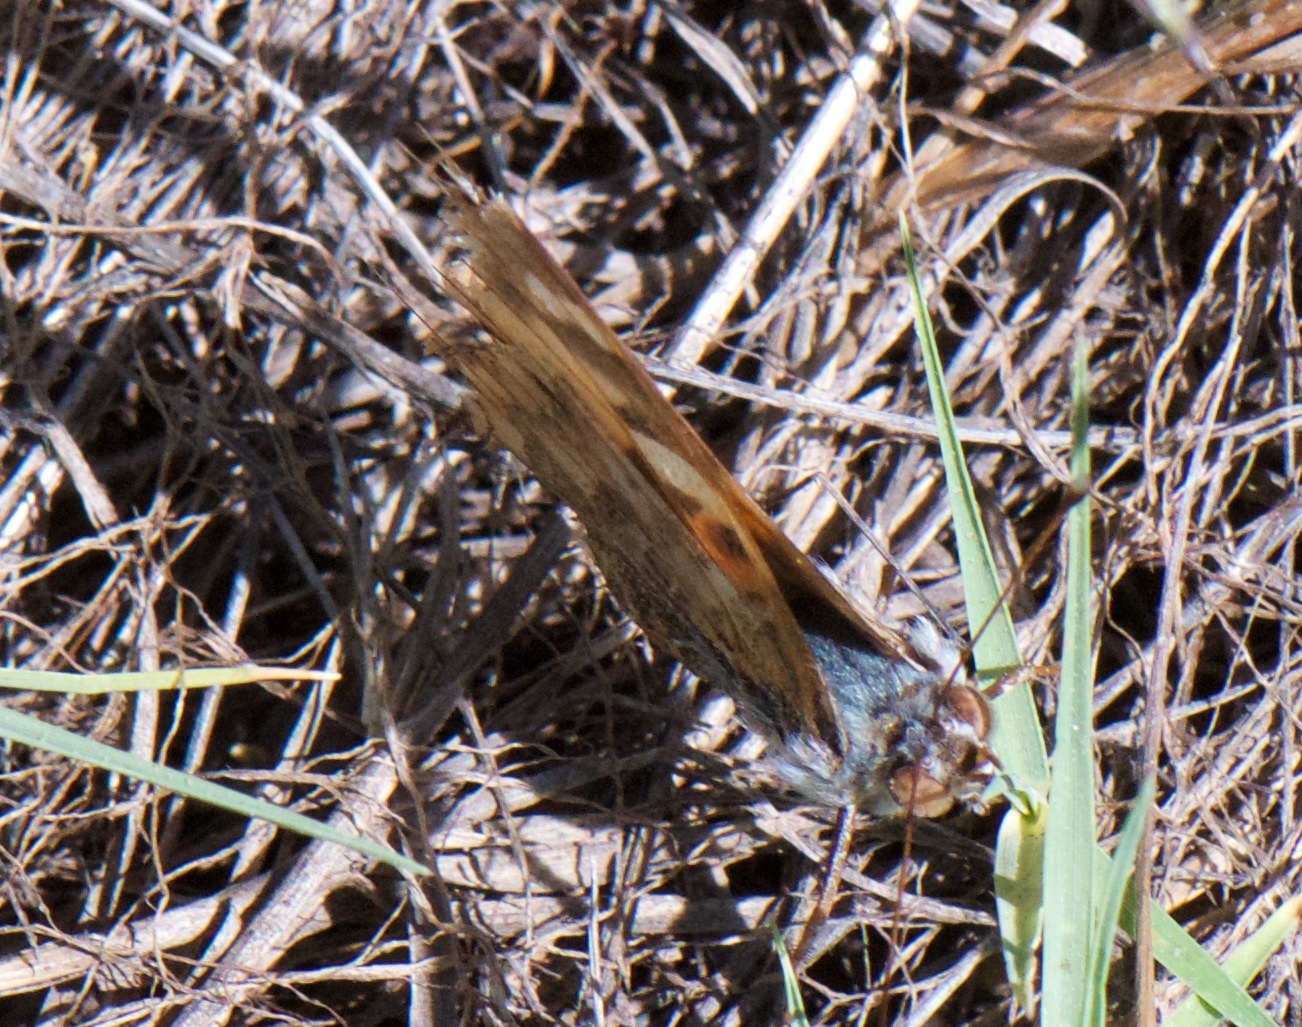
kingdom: Animalia
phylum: Arthropoda
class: Insecta
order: Lepidoptera
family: Nymphalidae
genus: Vanessa
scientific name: Vanessa cardui
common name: Painted lady
